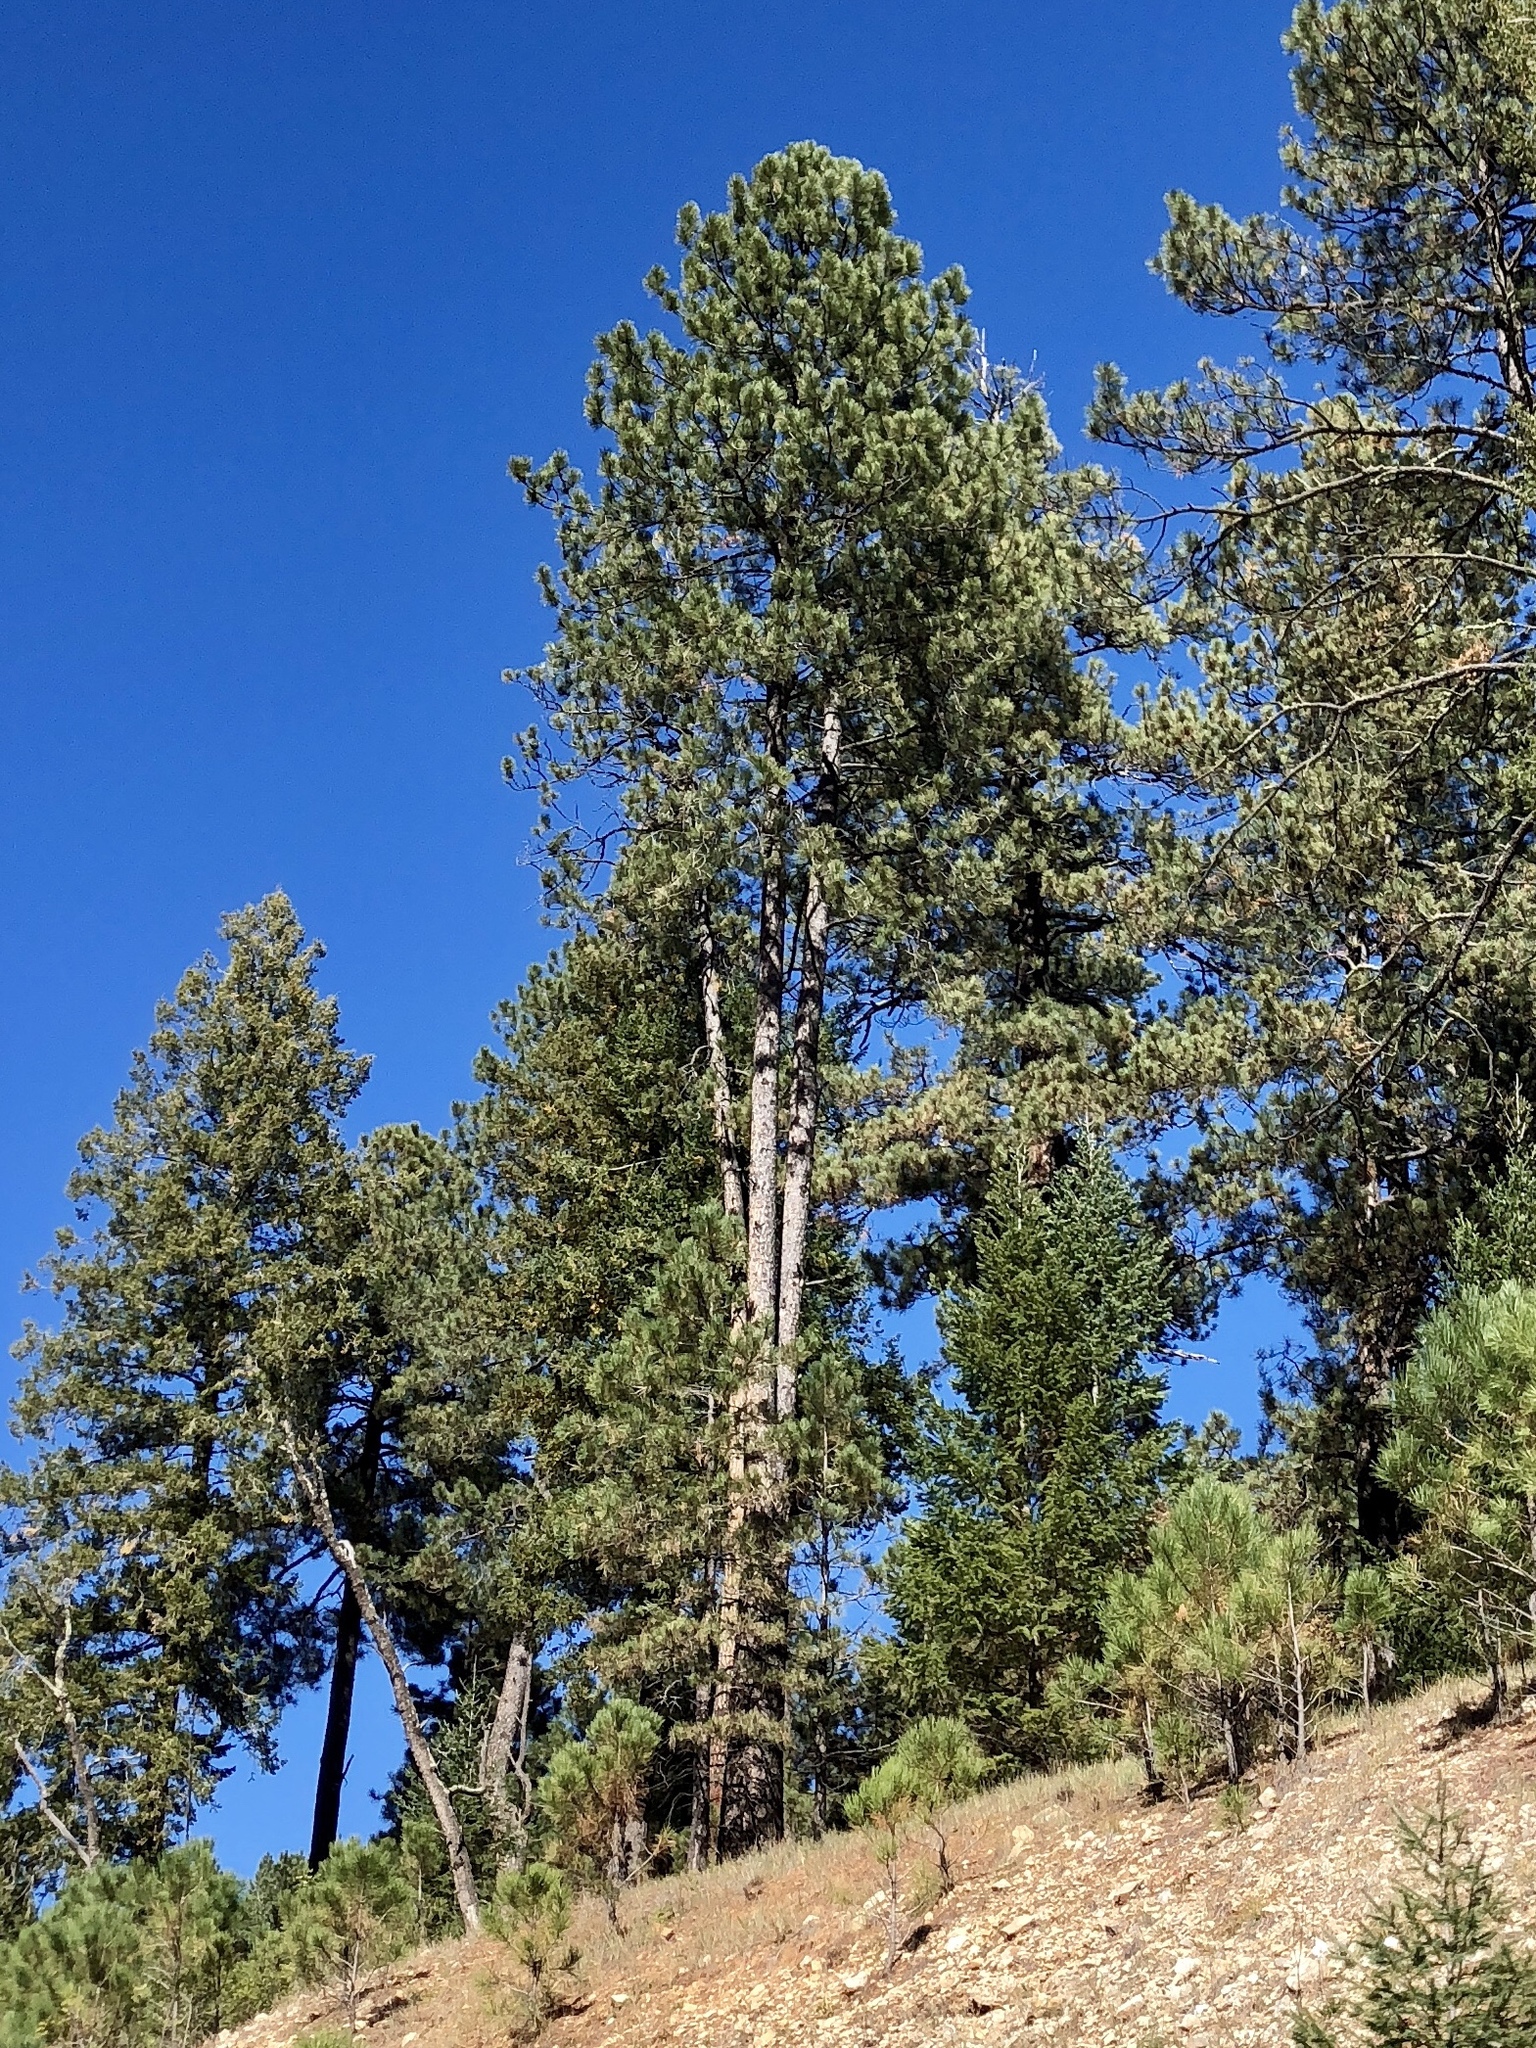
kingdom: Plantae
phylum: Tracheophyta
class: Pinopsida
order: Pinales
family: Pinaceae
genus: Pinus
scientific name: Pinus ponderosa
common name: Western yellow-pine
